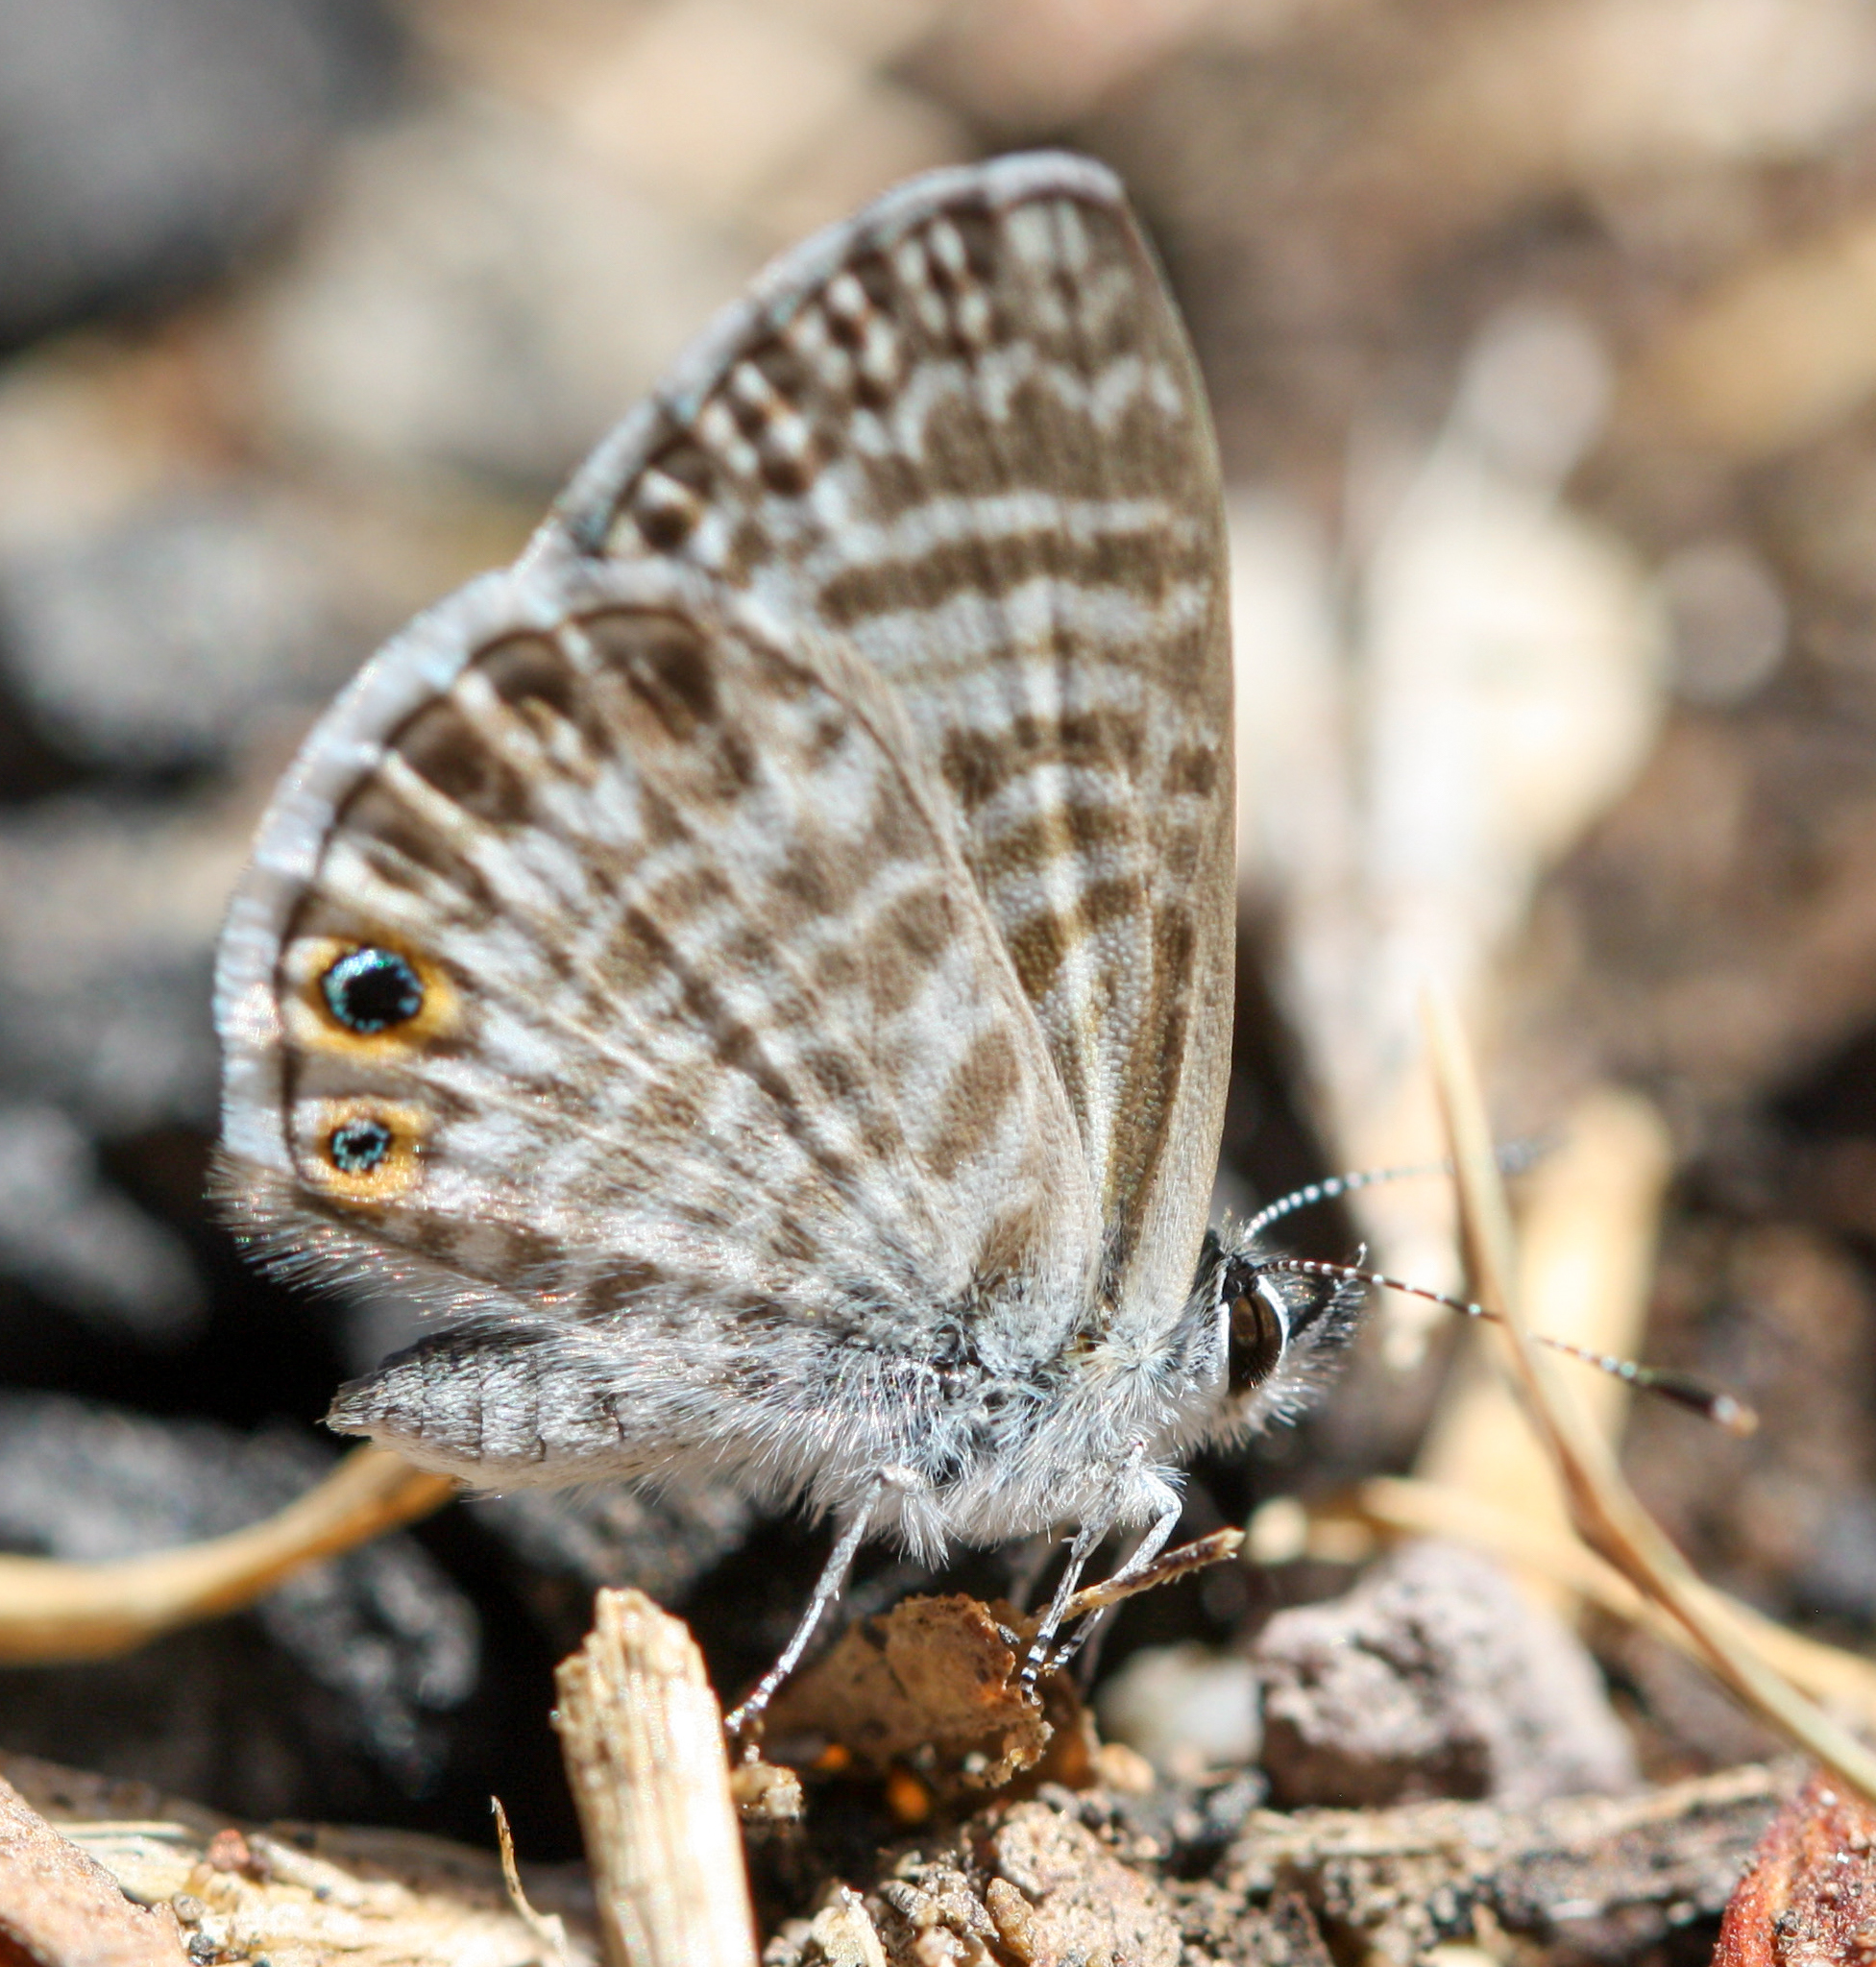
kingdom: Animalia
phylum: Arthropoda
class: Insecta
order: Lepidoptera
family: Lycaenidae
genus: Leptotes
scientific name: Leptotes marina
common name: Marine blue
